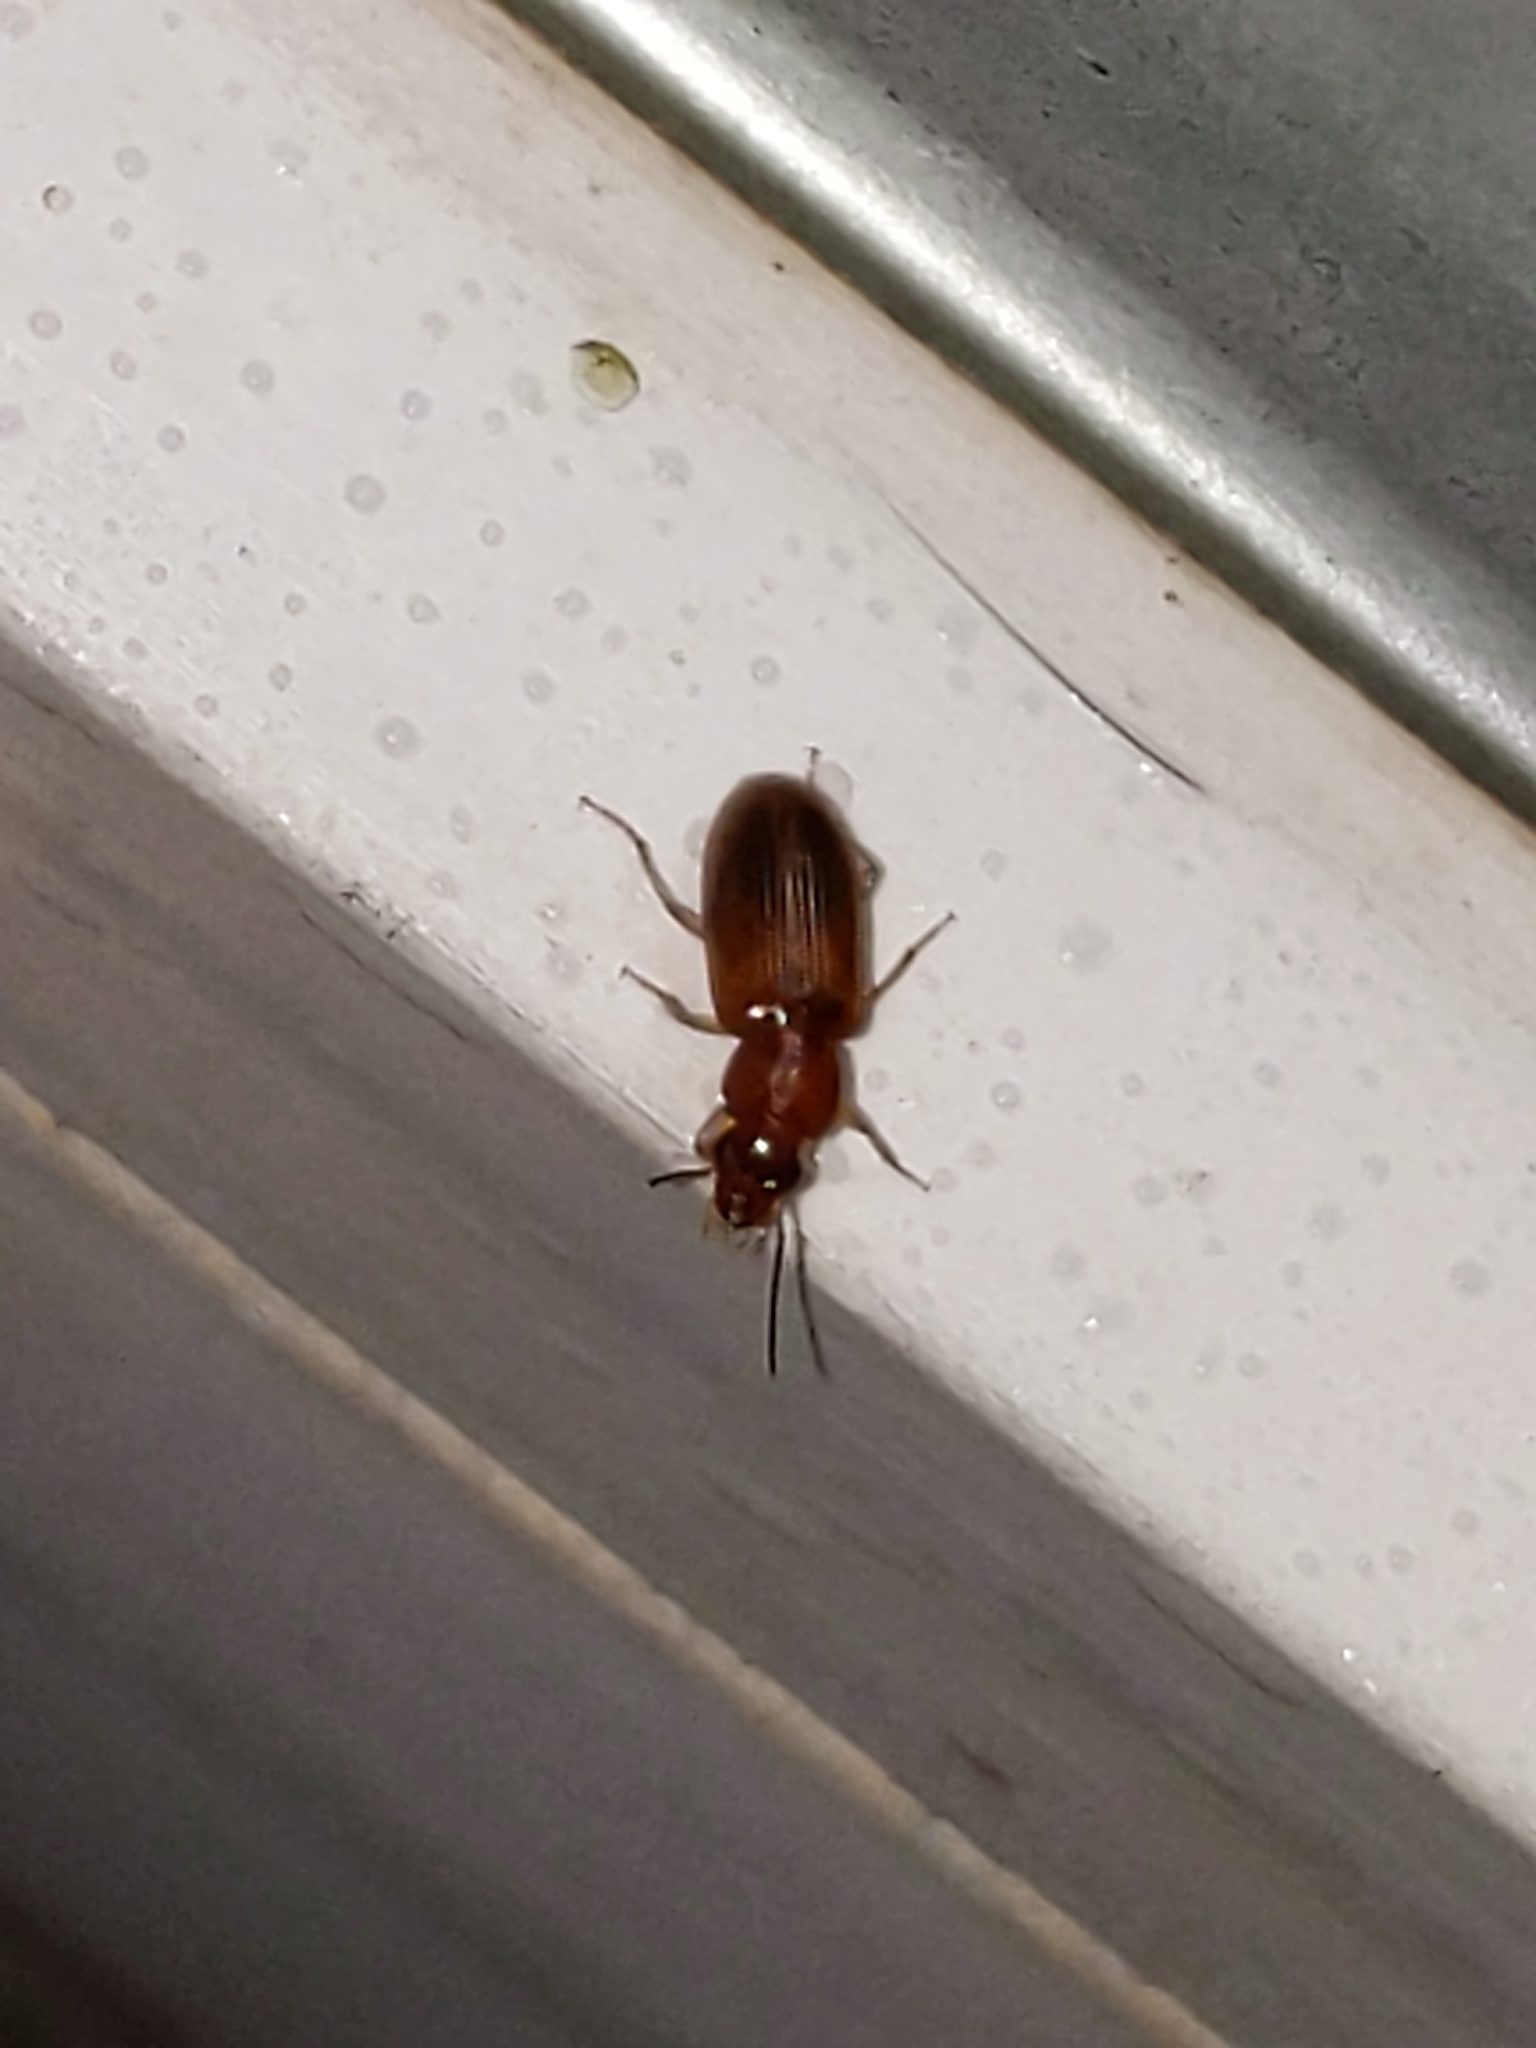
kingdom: Animalia
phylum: Arthropoda
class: Insecta
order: Coleoptera
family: Carabidae
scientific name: Carabidae
